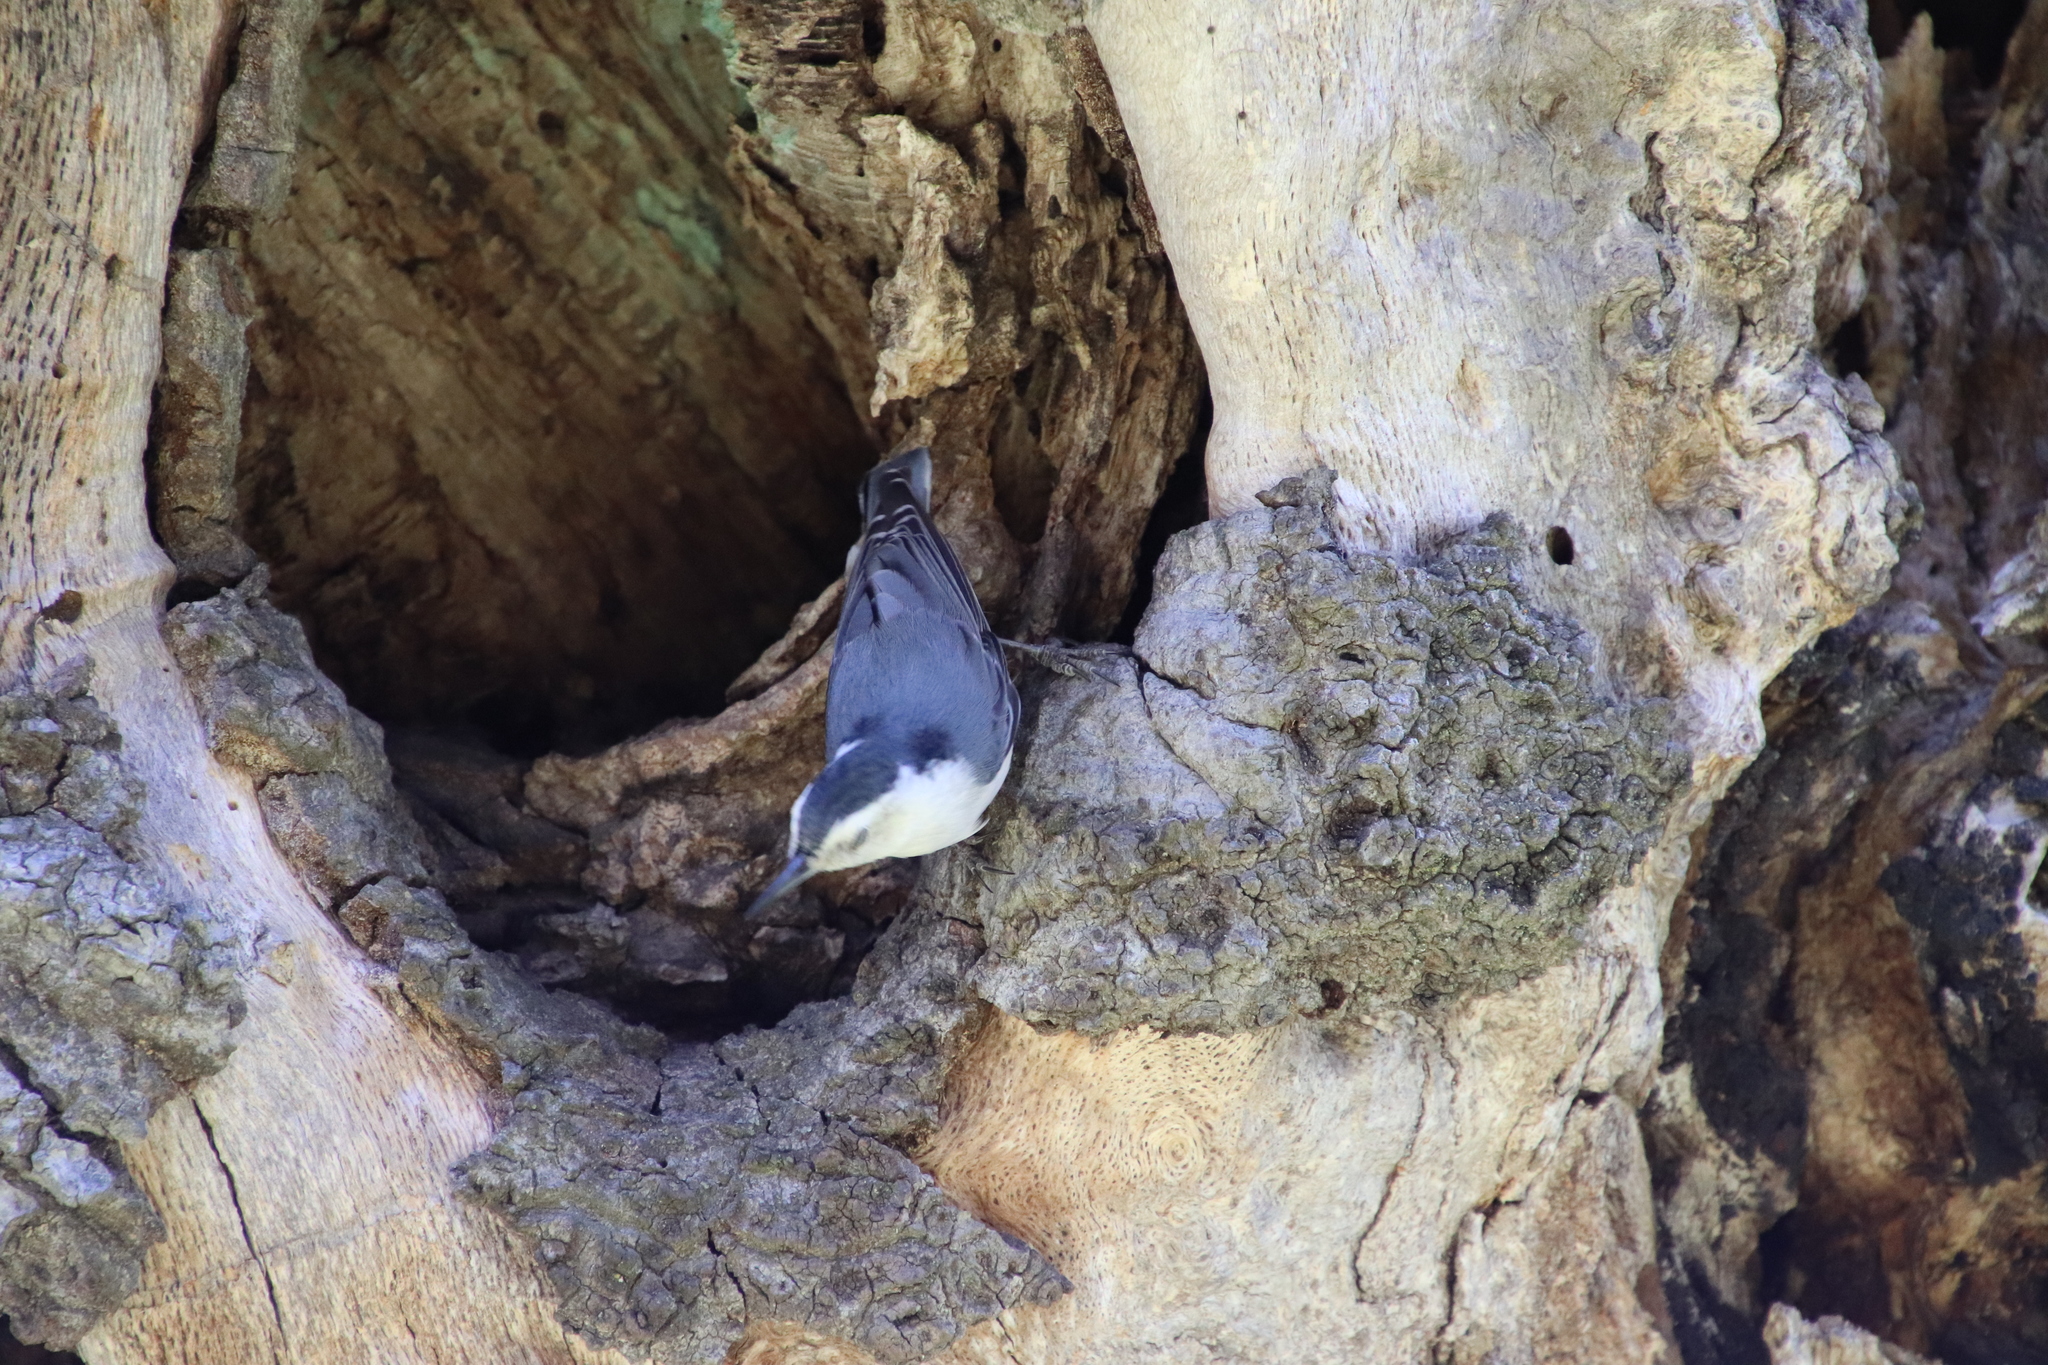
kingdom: Animalia
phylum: Chordata
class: Aves
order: Passeriformes
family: Sittidae
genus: Sitta
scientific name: Sitta carolinensis
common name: White-breasted nuthatch
